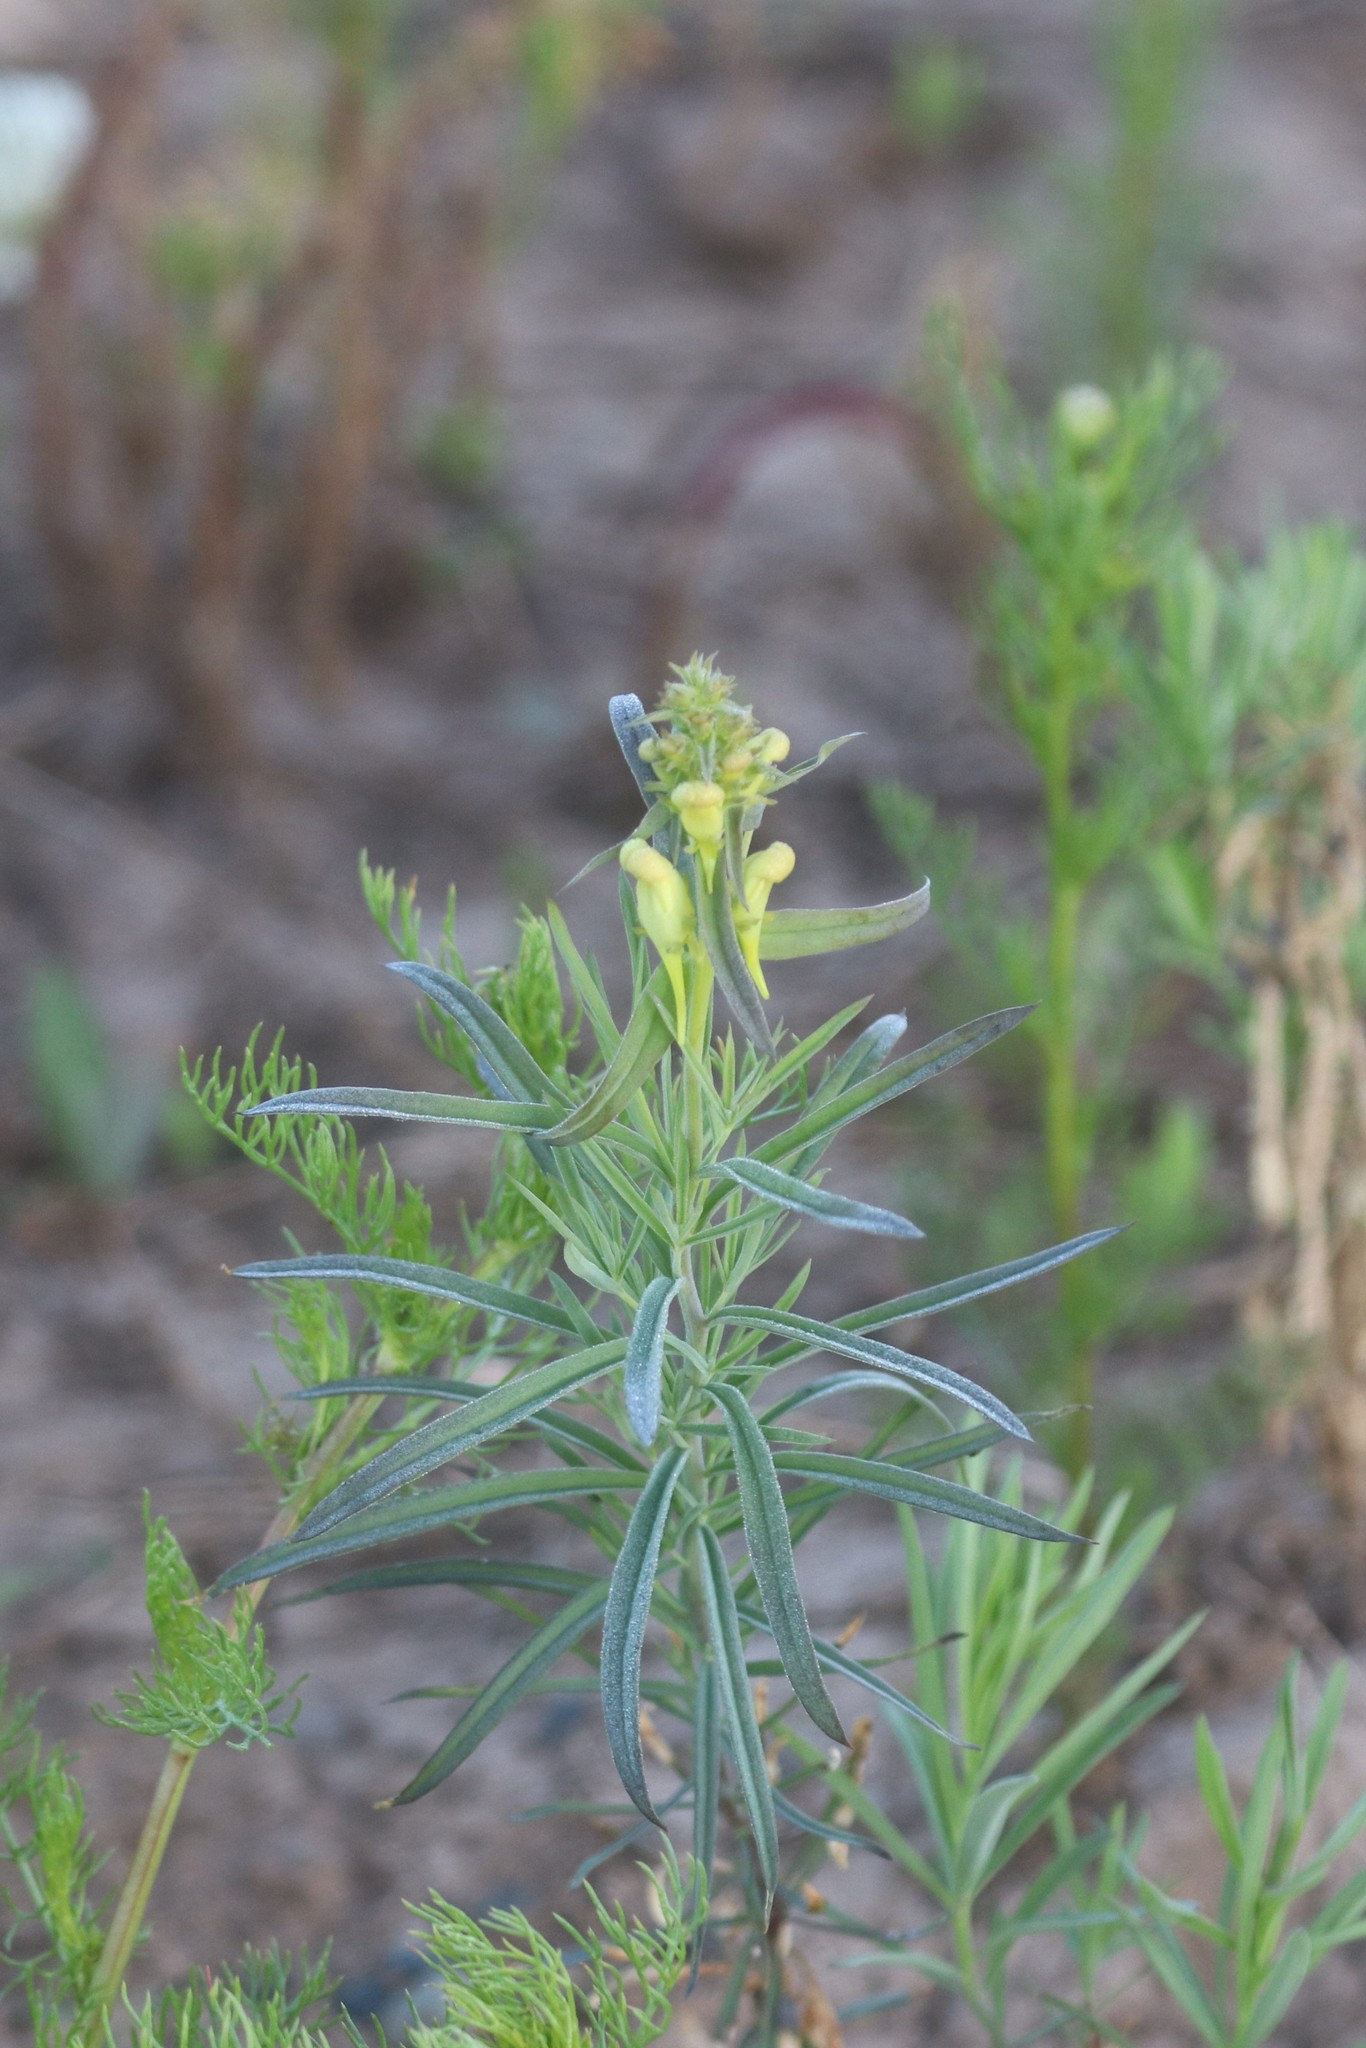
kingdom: Plantae
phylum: Tracheophyta
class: Magnoliopsida
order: Lamiales
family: Plantaginaceae
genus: Linaria
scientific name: Linaria vulgaris
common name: Butter and eggs
